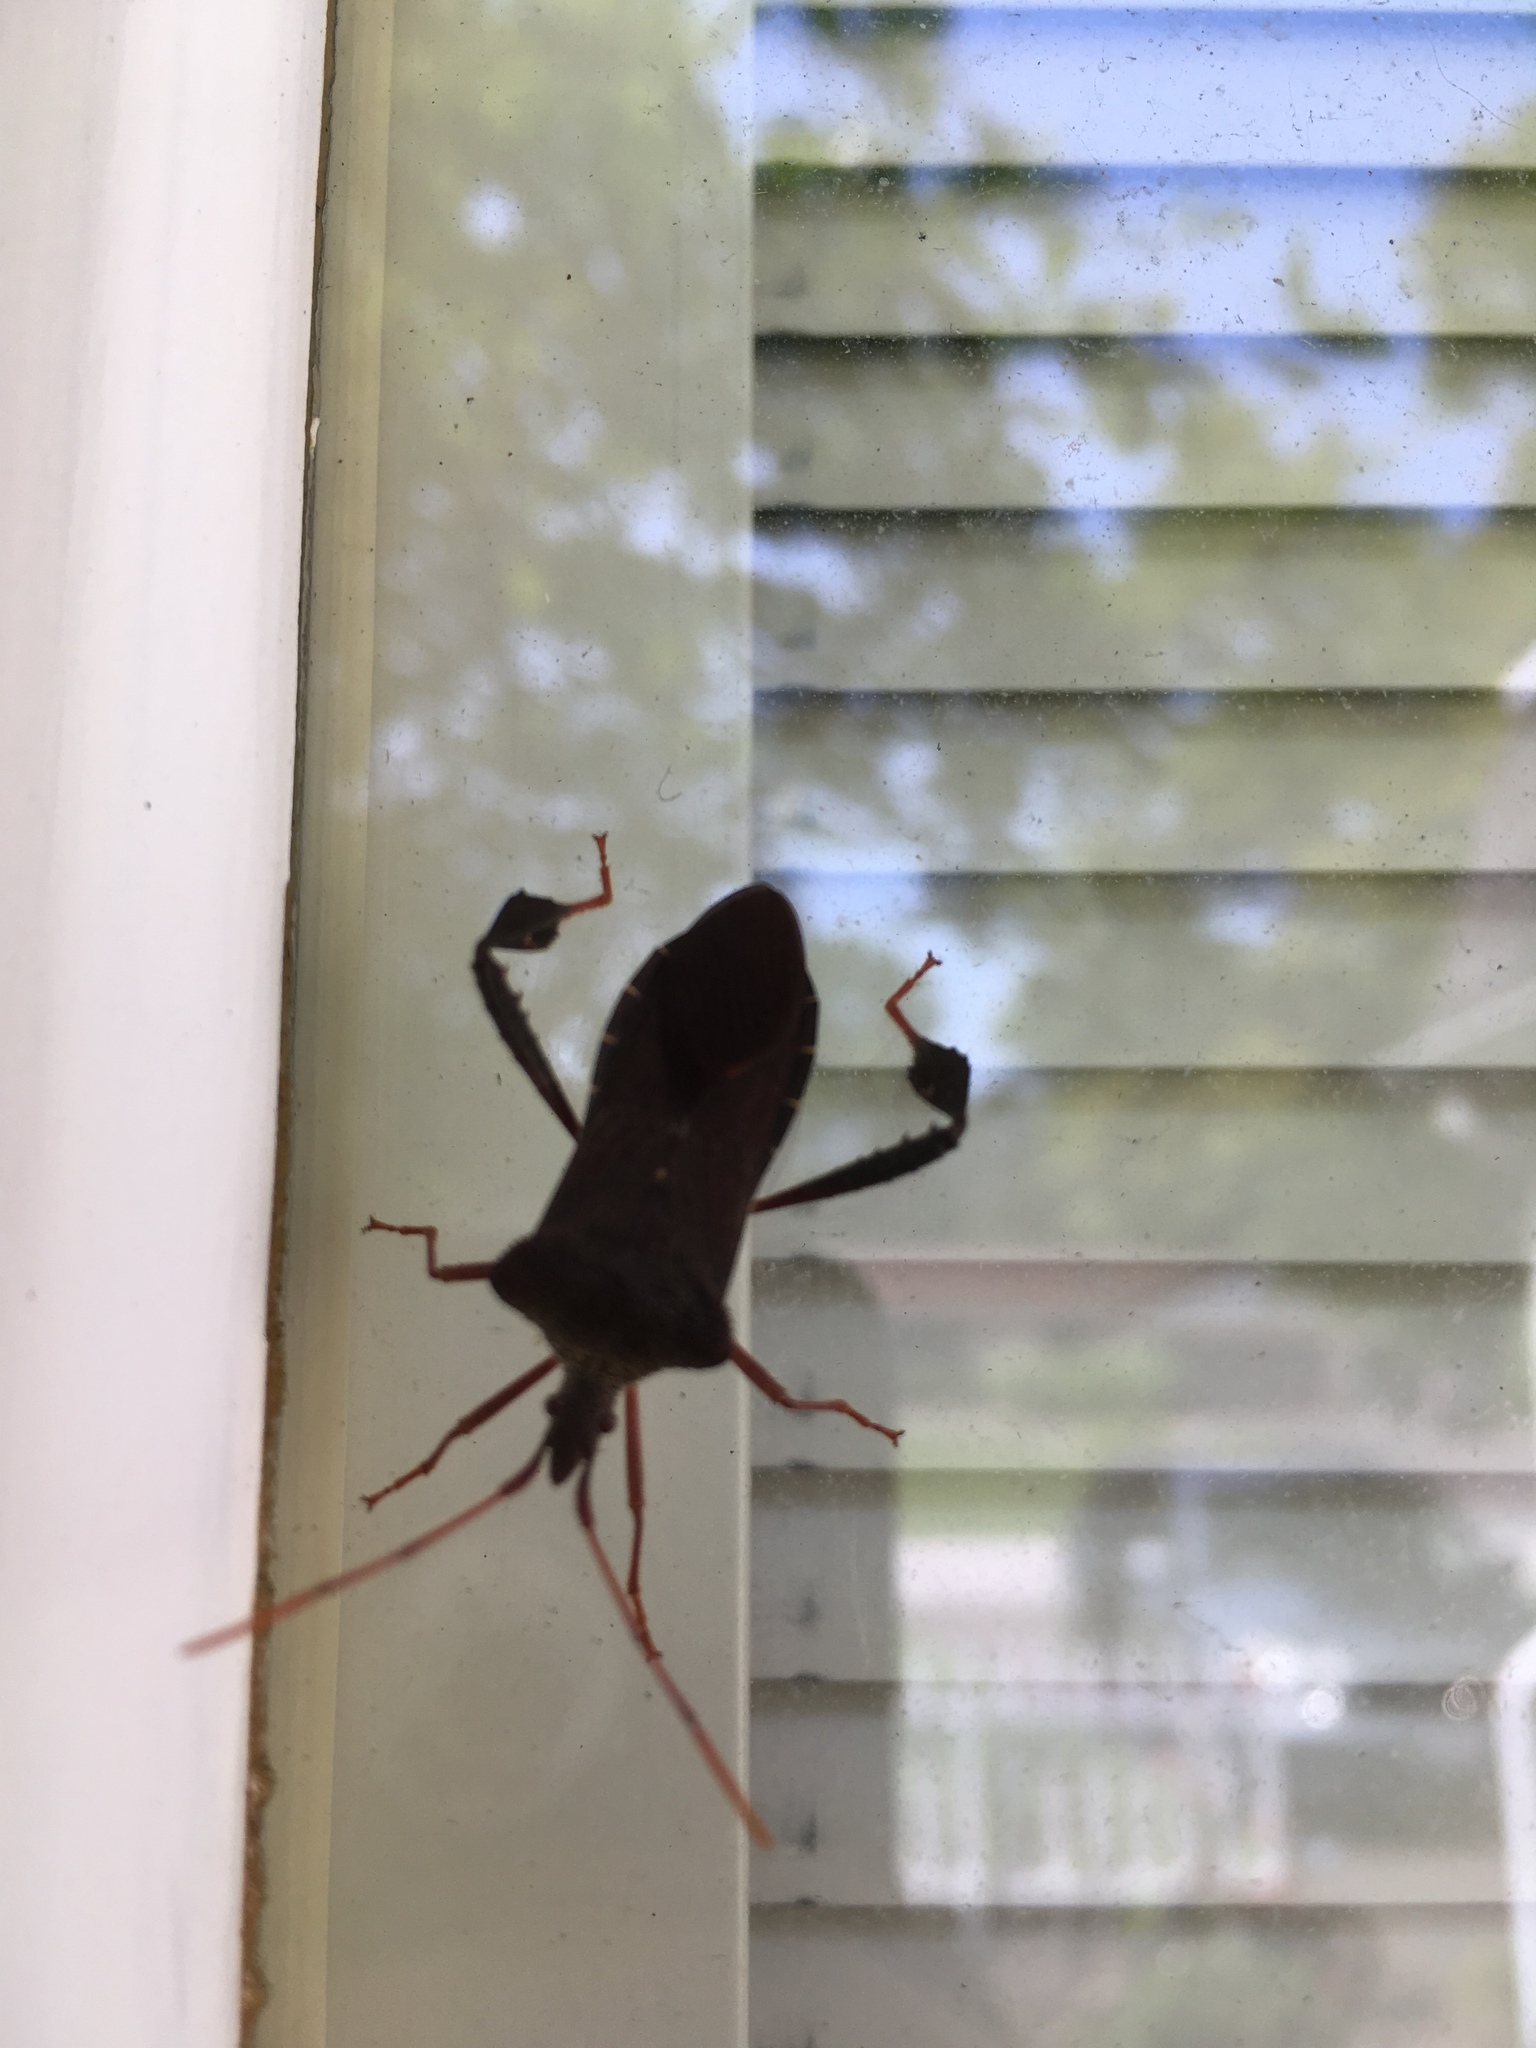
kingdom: Animalia
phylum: Arthropoda
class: Insecta
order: Hemiptera
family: Coreidae
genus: Leptoglossus
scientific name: Leptoglossus fulvicornis
